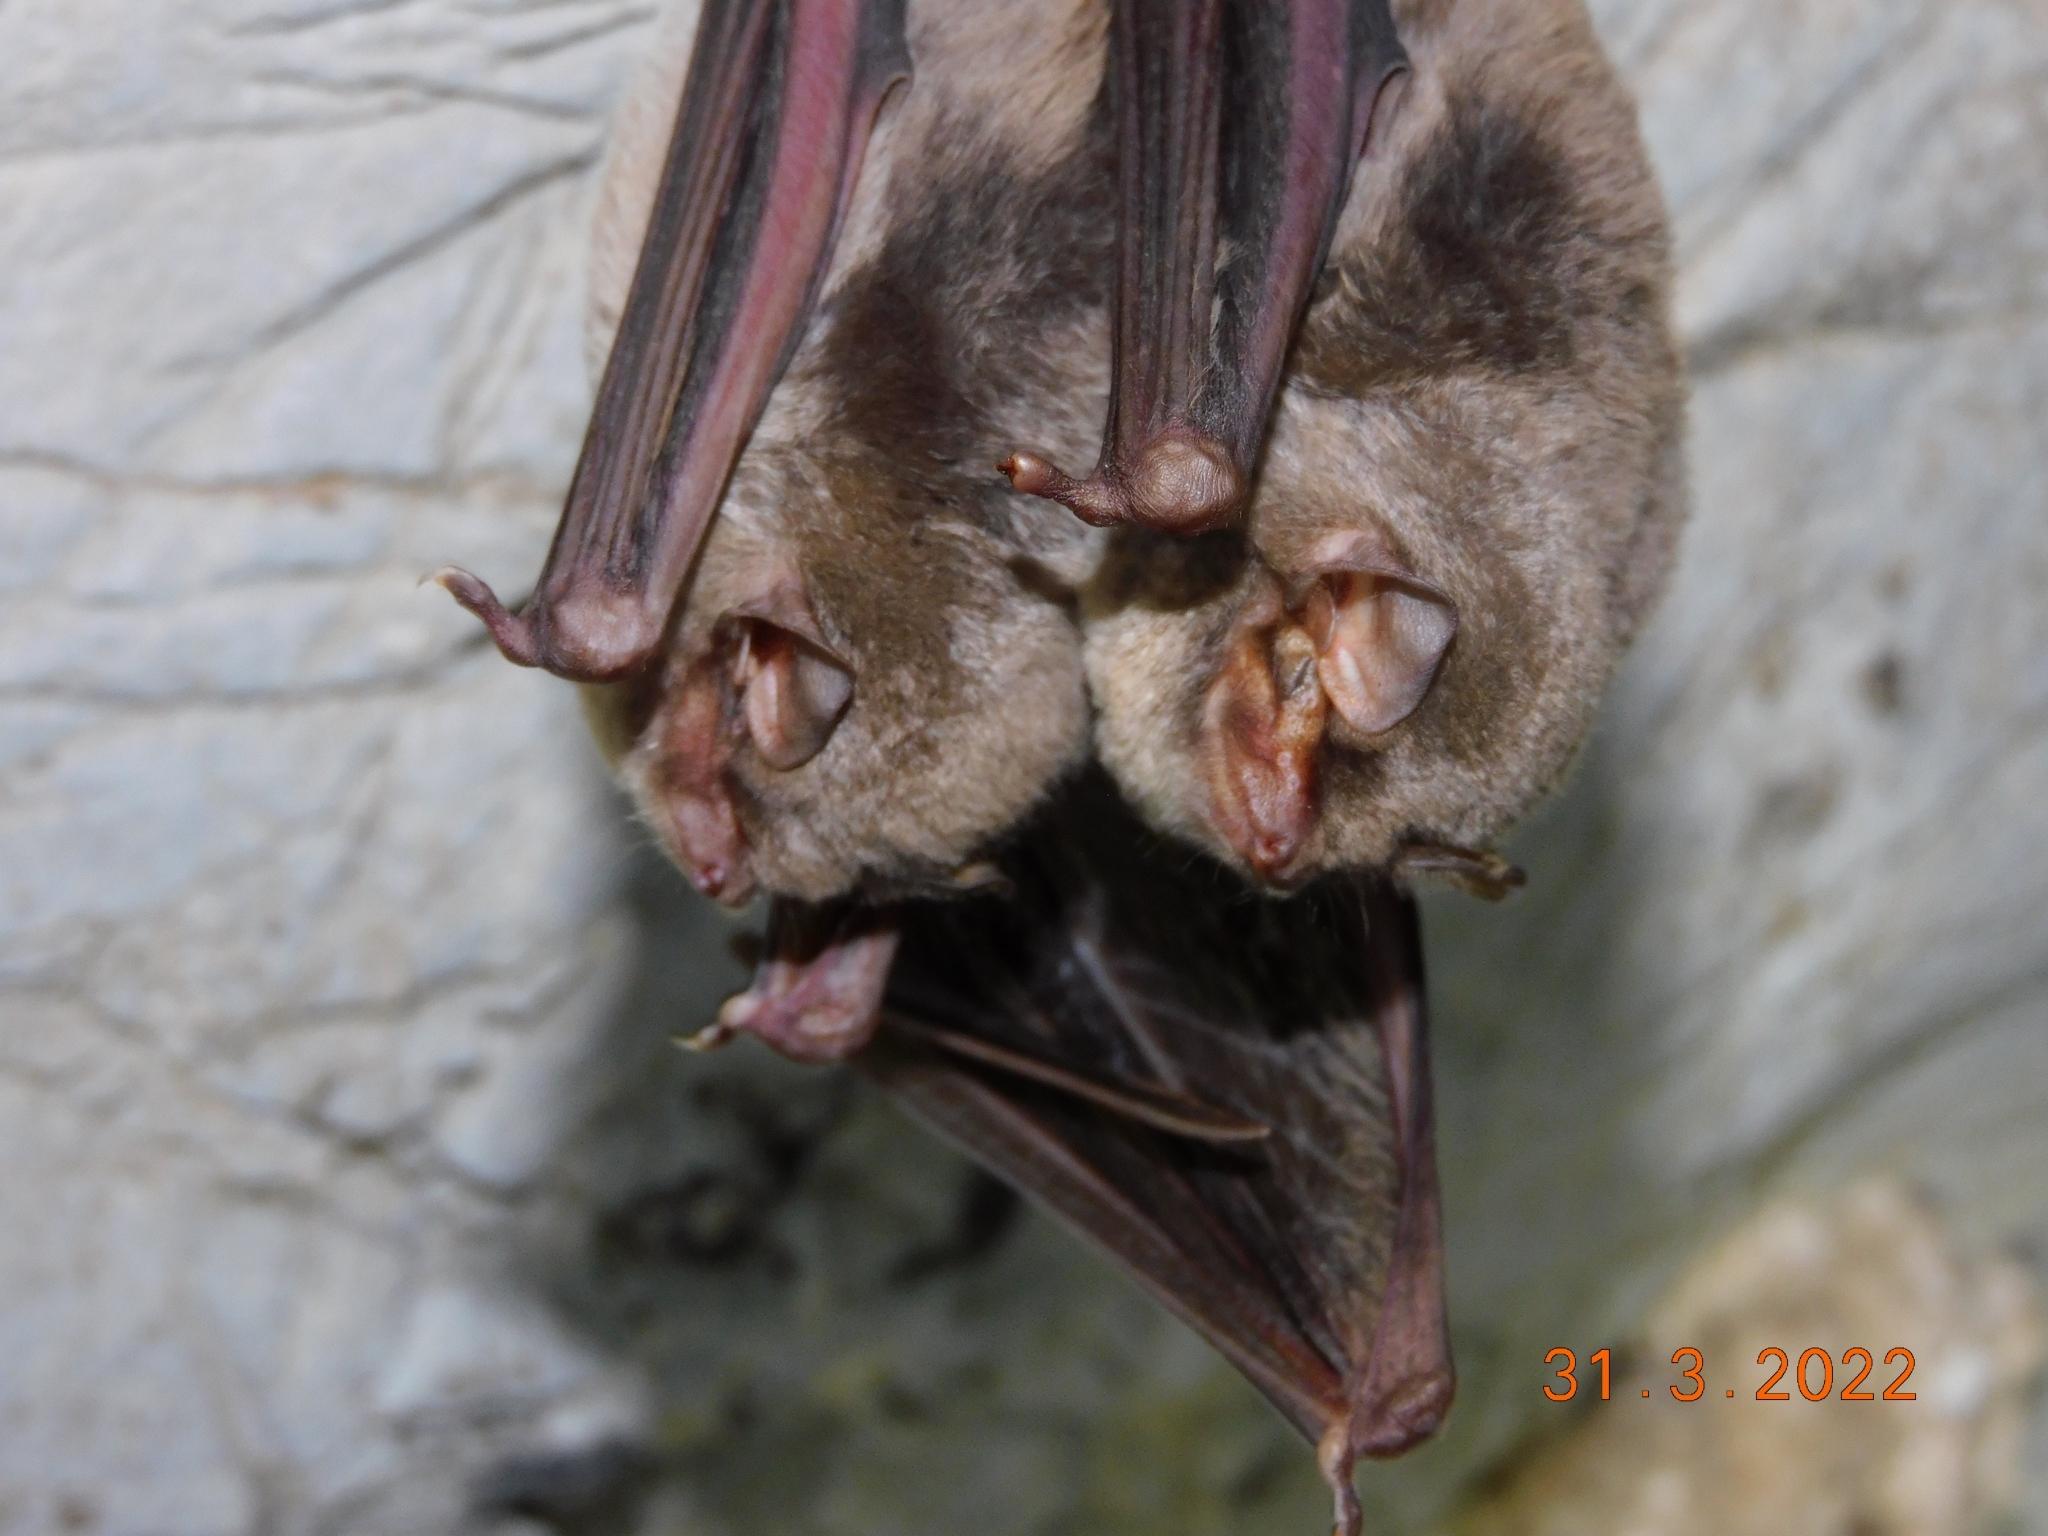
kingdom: Animalia
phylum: Chordata
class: Mammalia
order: Chiroptera
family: Miniopteridae
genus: Miniopterus
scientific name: Miniopterus schreibersii
